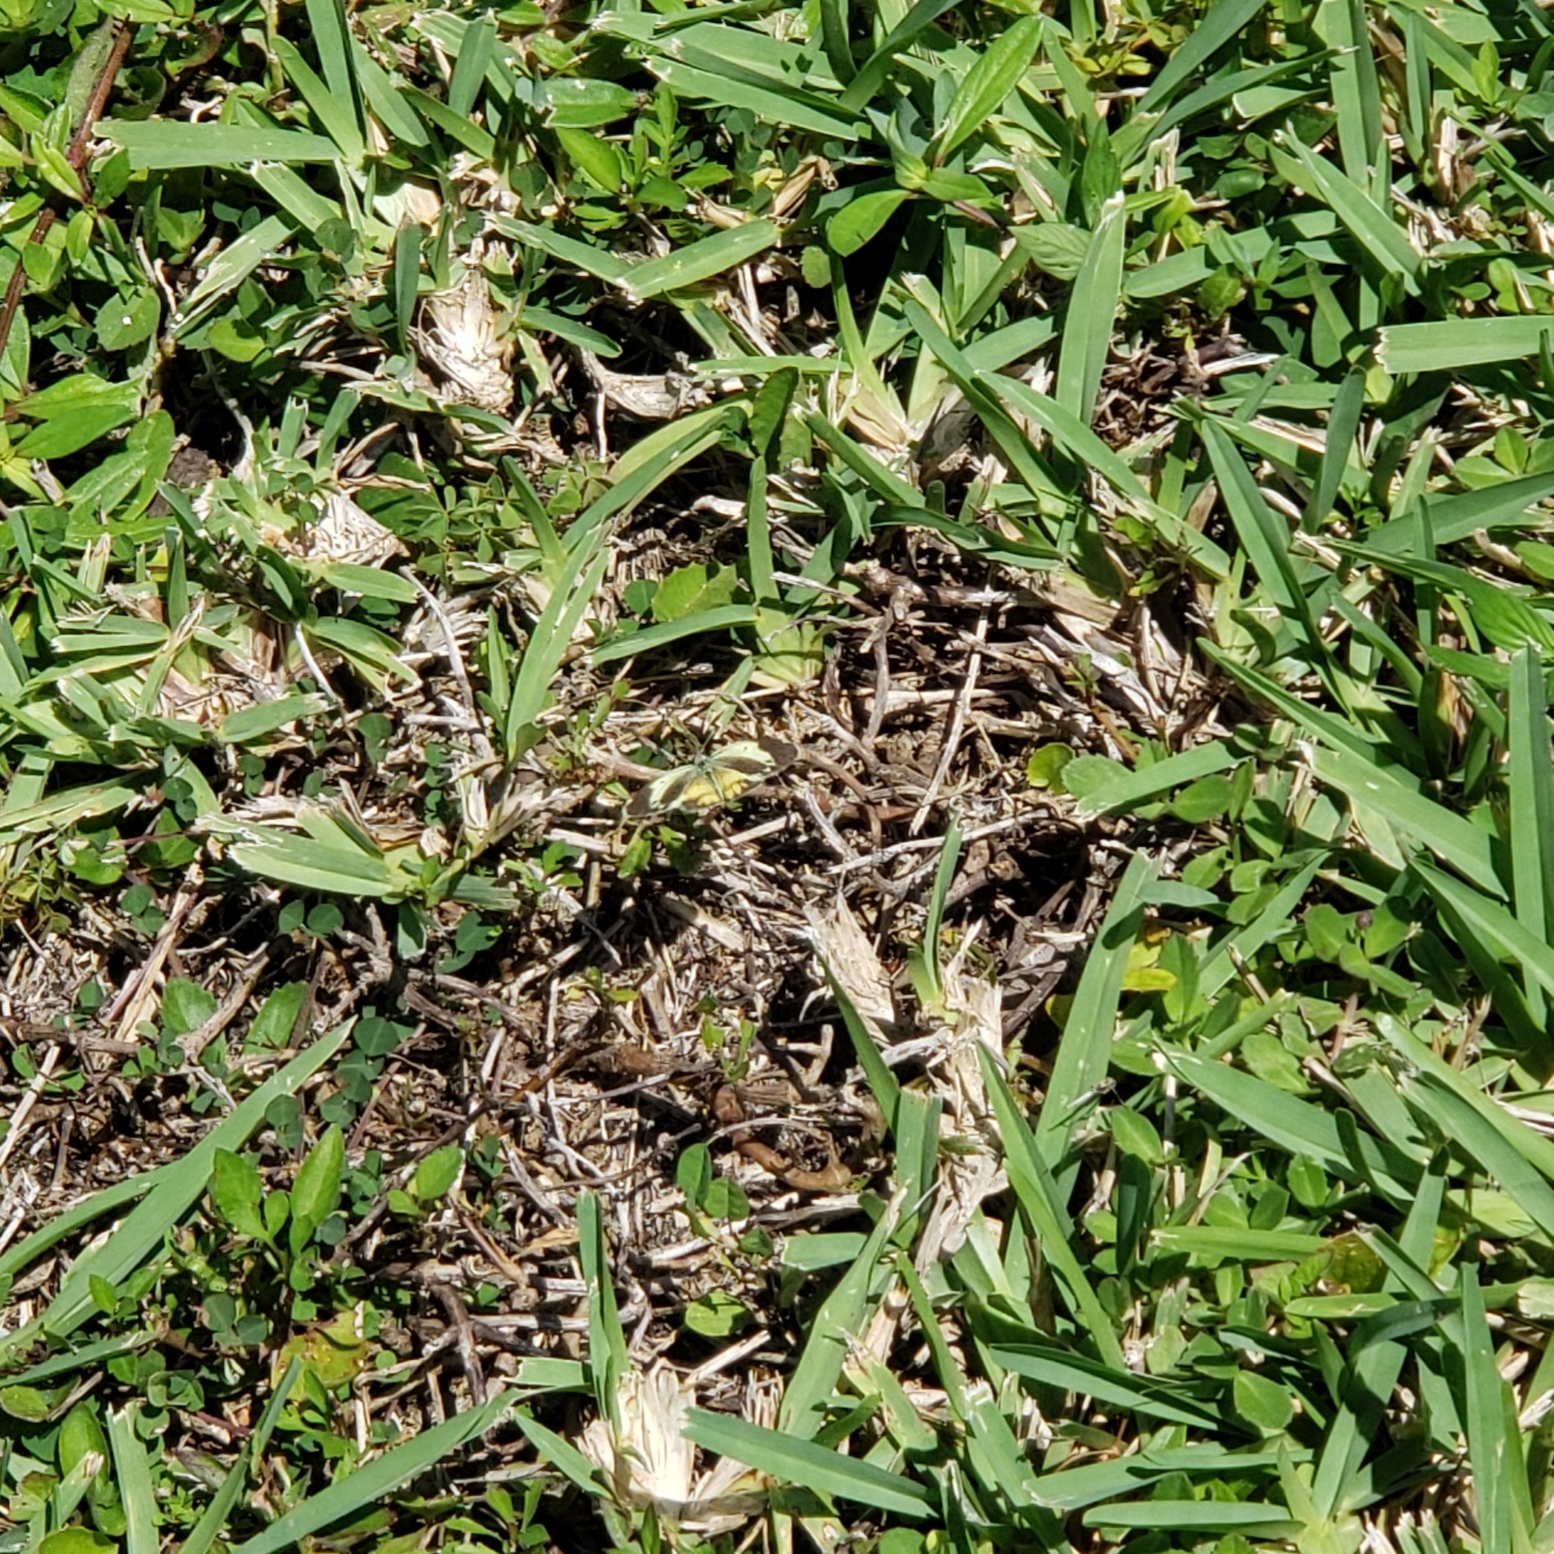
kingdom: Animalia
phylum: Arthropoda
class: Insecta
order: Lepidoptera
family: Pieridae
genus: Nathalis
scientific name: Nathalis iole
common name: Dainty sulphur
